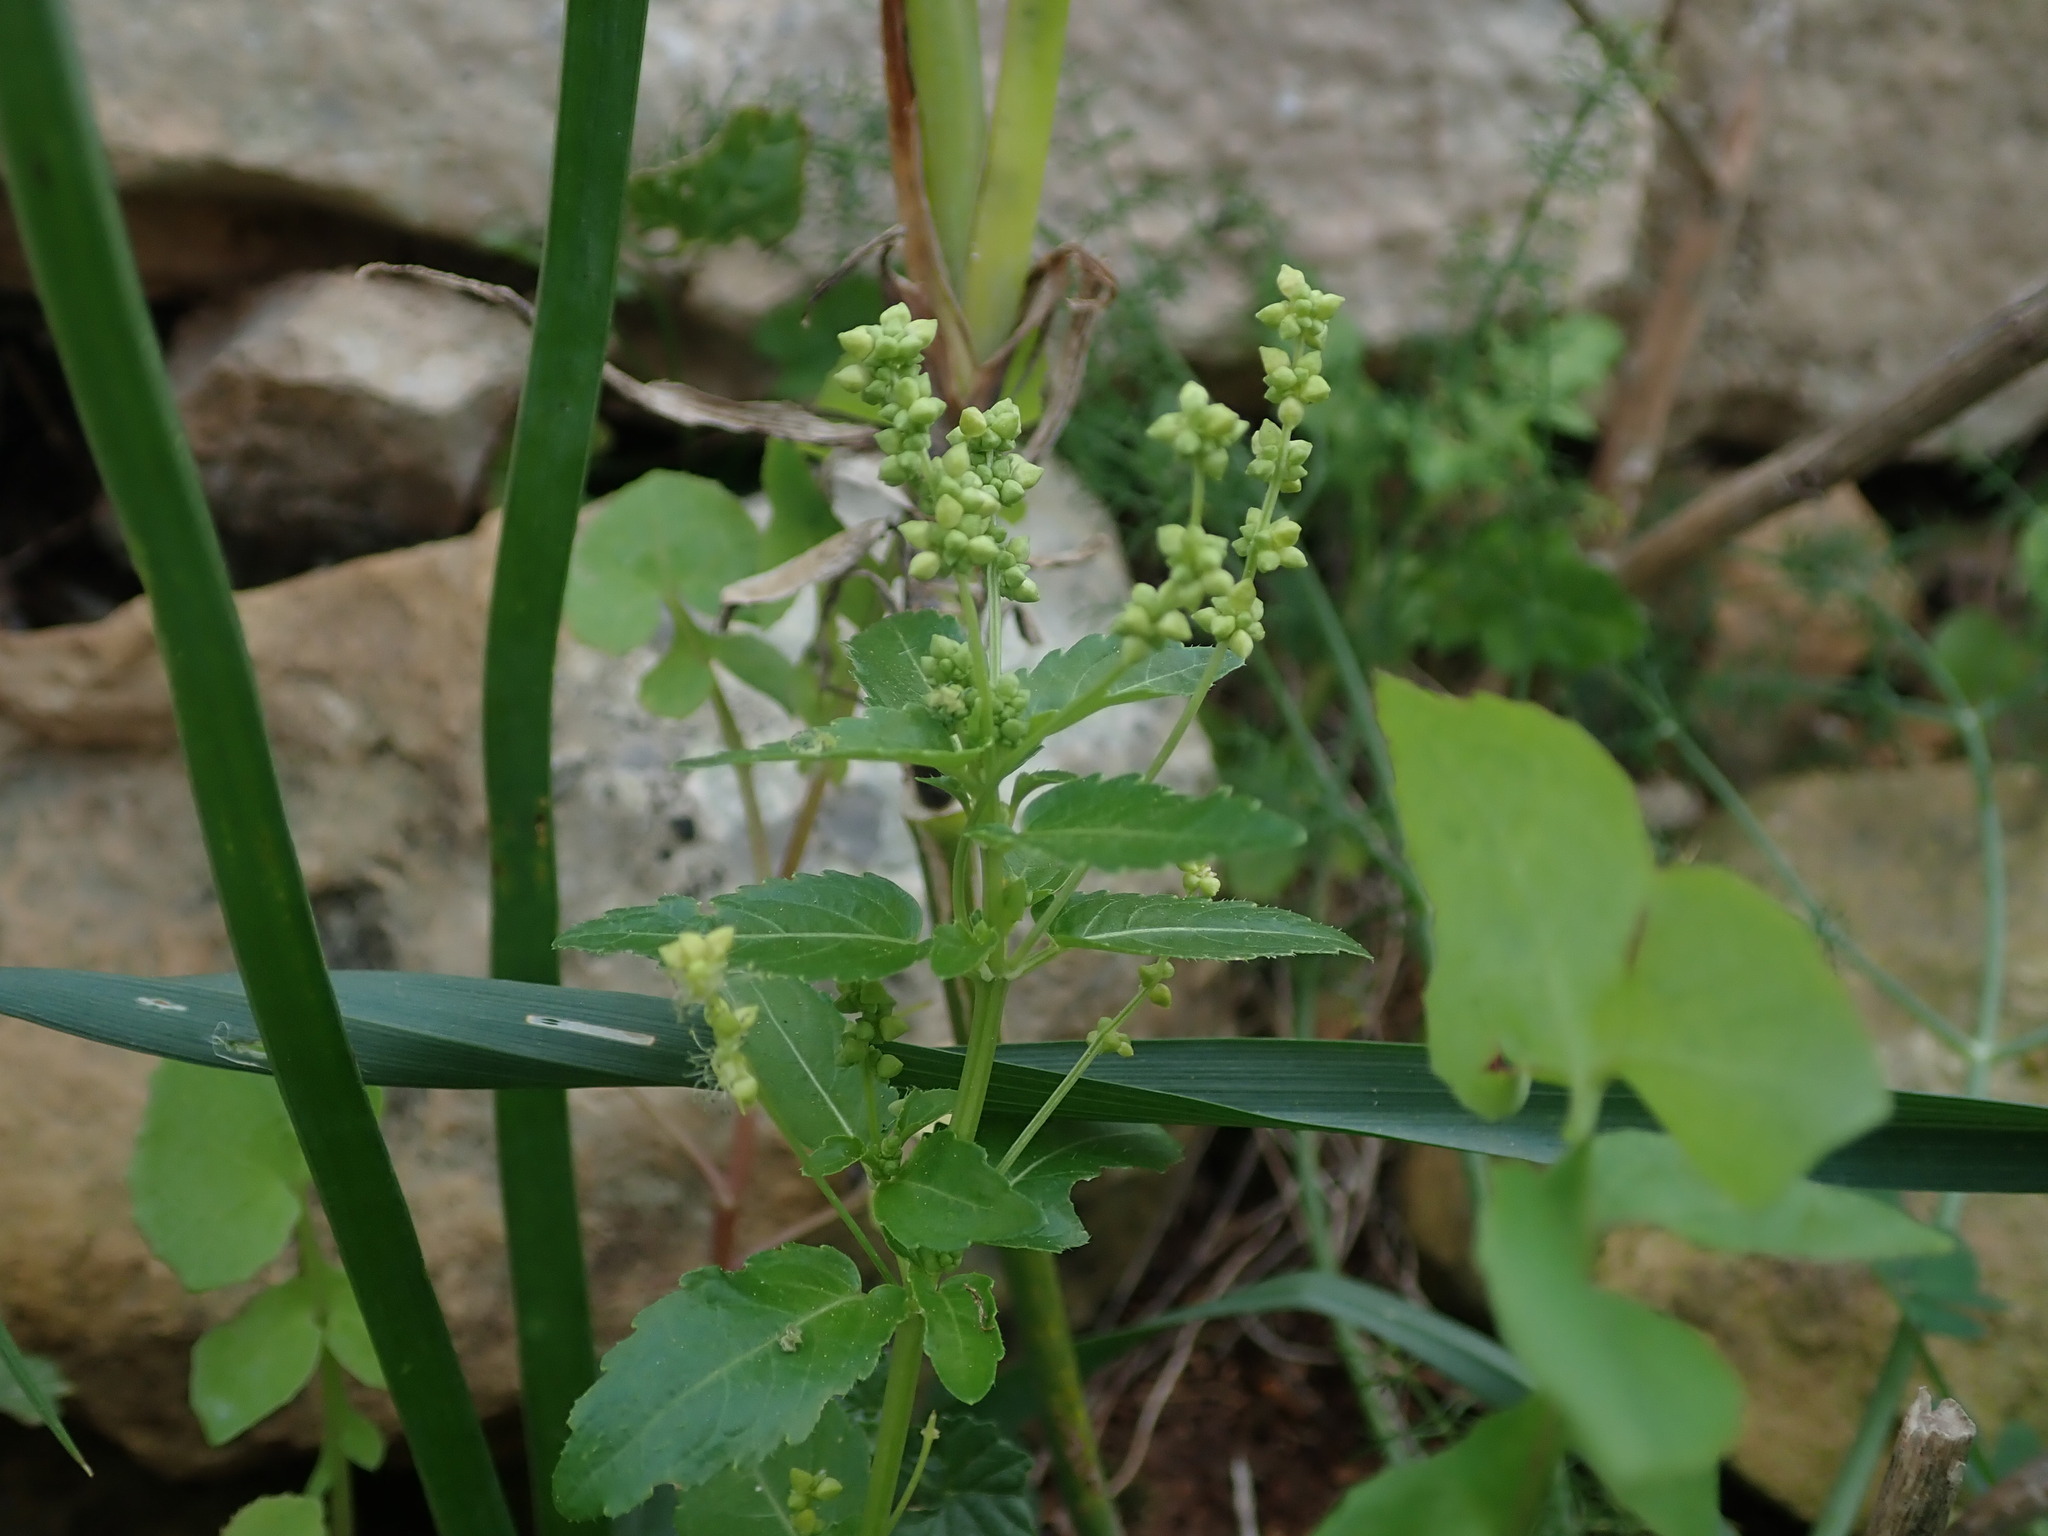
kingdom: Plantae
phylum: Tracheophyta
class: Magnoliopsida
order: Malpighiales
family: Euphorbiaceae
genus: Mercurialis
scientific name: Mercurialis annua
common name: Annual mercury
